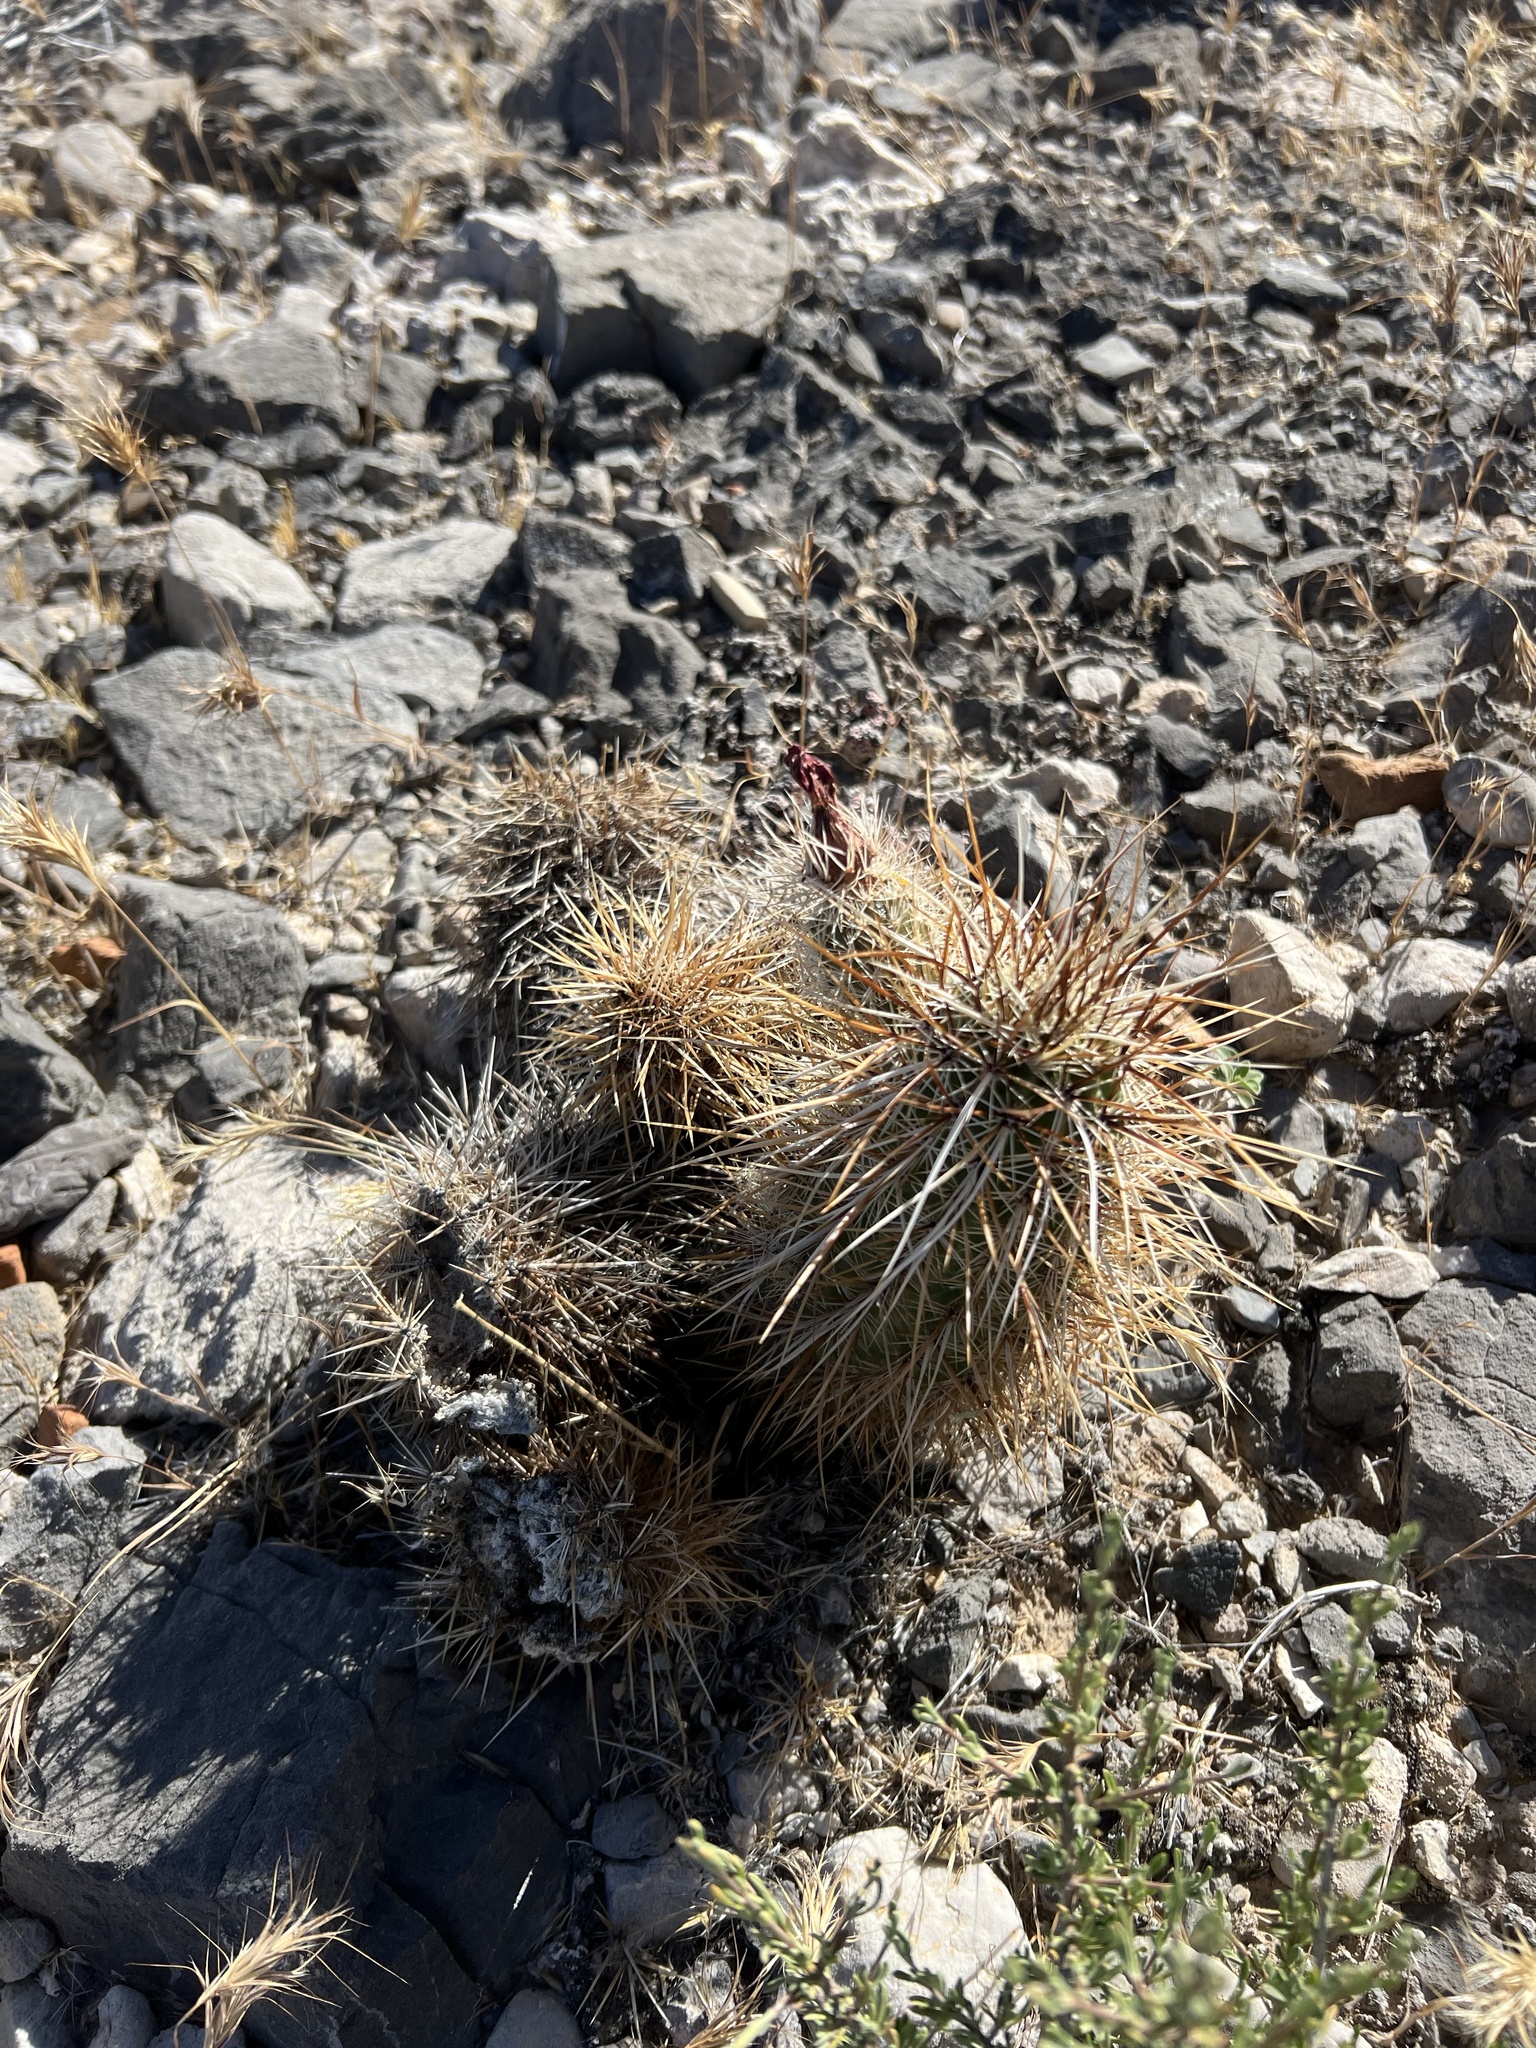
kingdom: Plantae
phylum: Tracheophyta
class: Magnoliopsida
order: Caryophyllales
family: Cactaceae
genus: Echinocereus
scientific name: Echinocereus engelmannii
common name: Engelmann's hedgehog cactus
